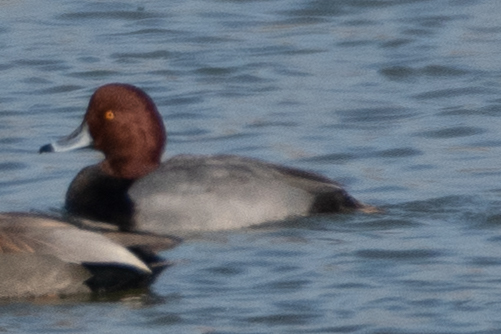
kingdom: Animalia
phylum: Chordata
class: Aves
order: Anseriformes
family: Anatidae
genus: Aythya
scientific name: Aythya americana
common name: Redhead
